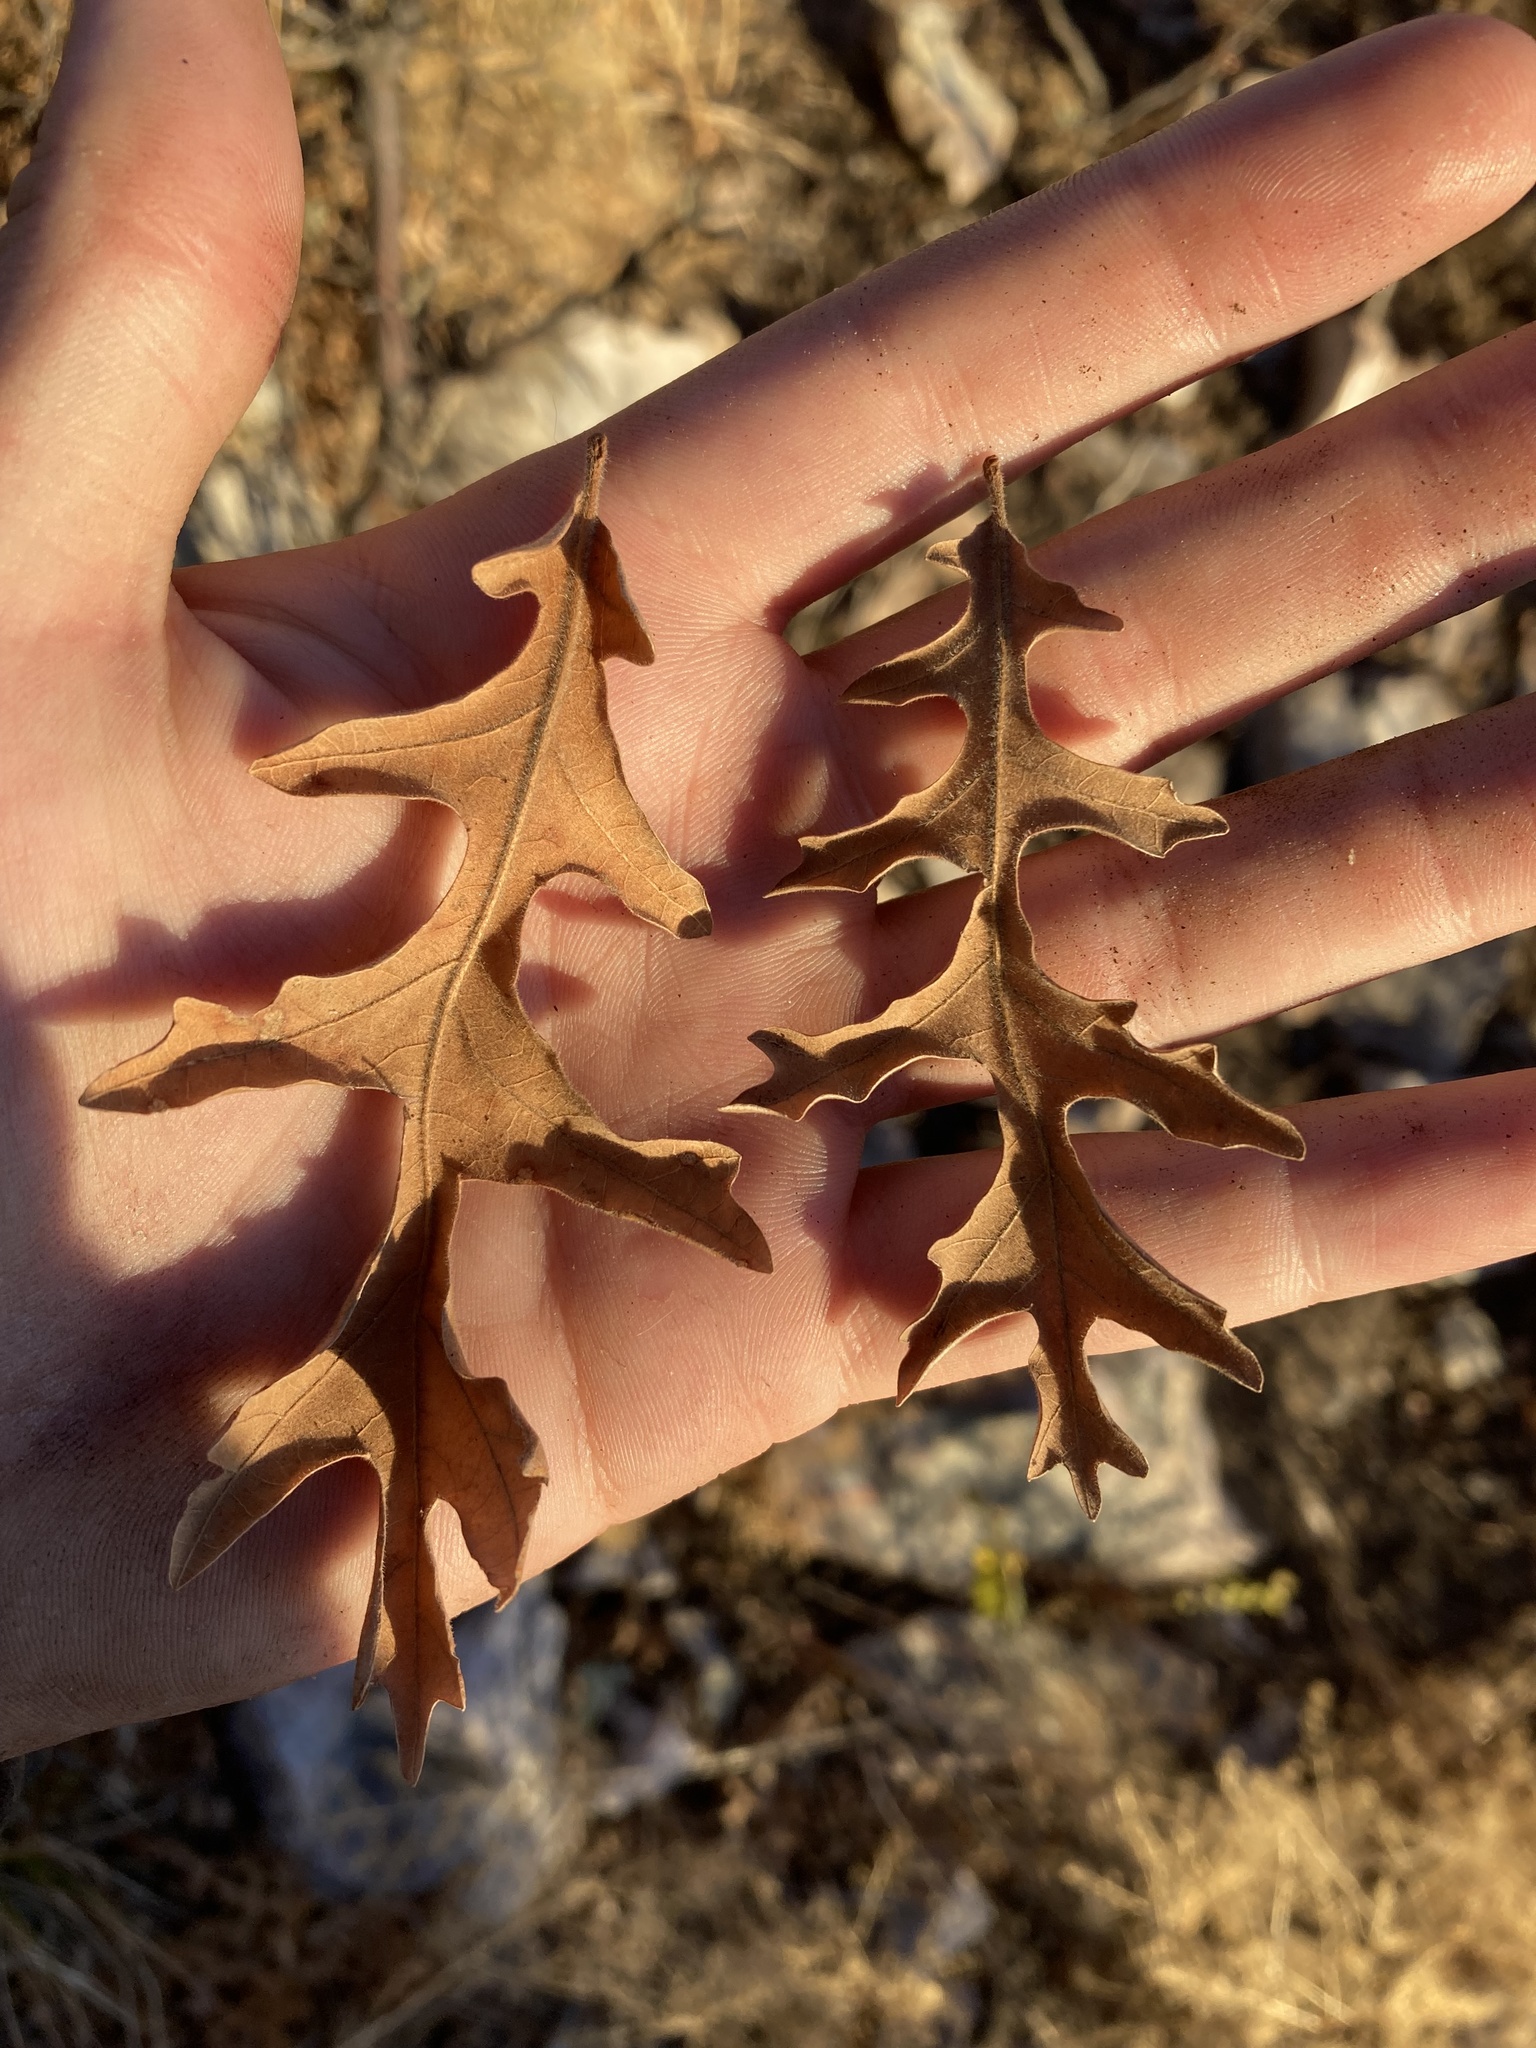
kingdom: Plantae
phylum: Tracheophyta
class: Magnoliopsida
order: Fagales
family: Fagaceae
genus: Quercus
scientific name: Quercus gambelii
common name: Gambel oak
